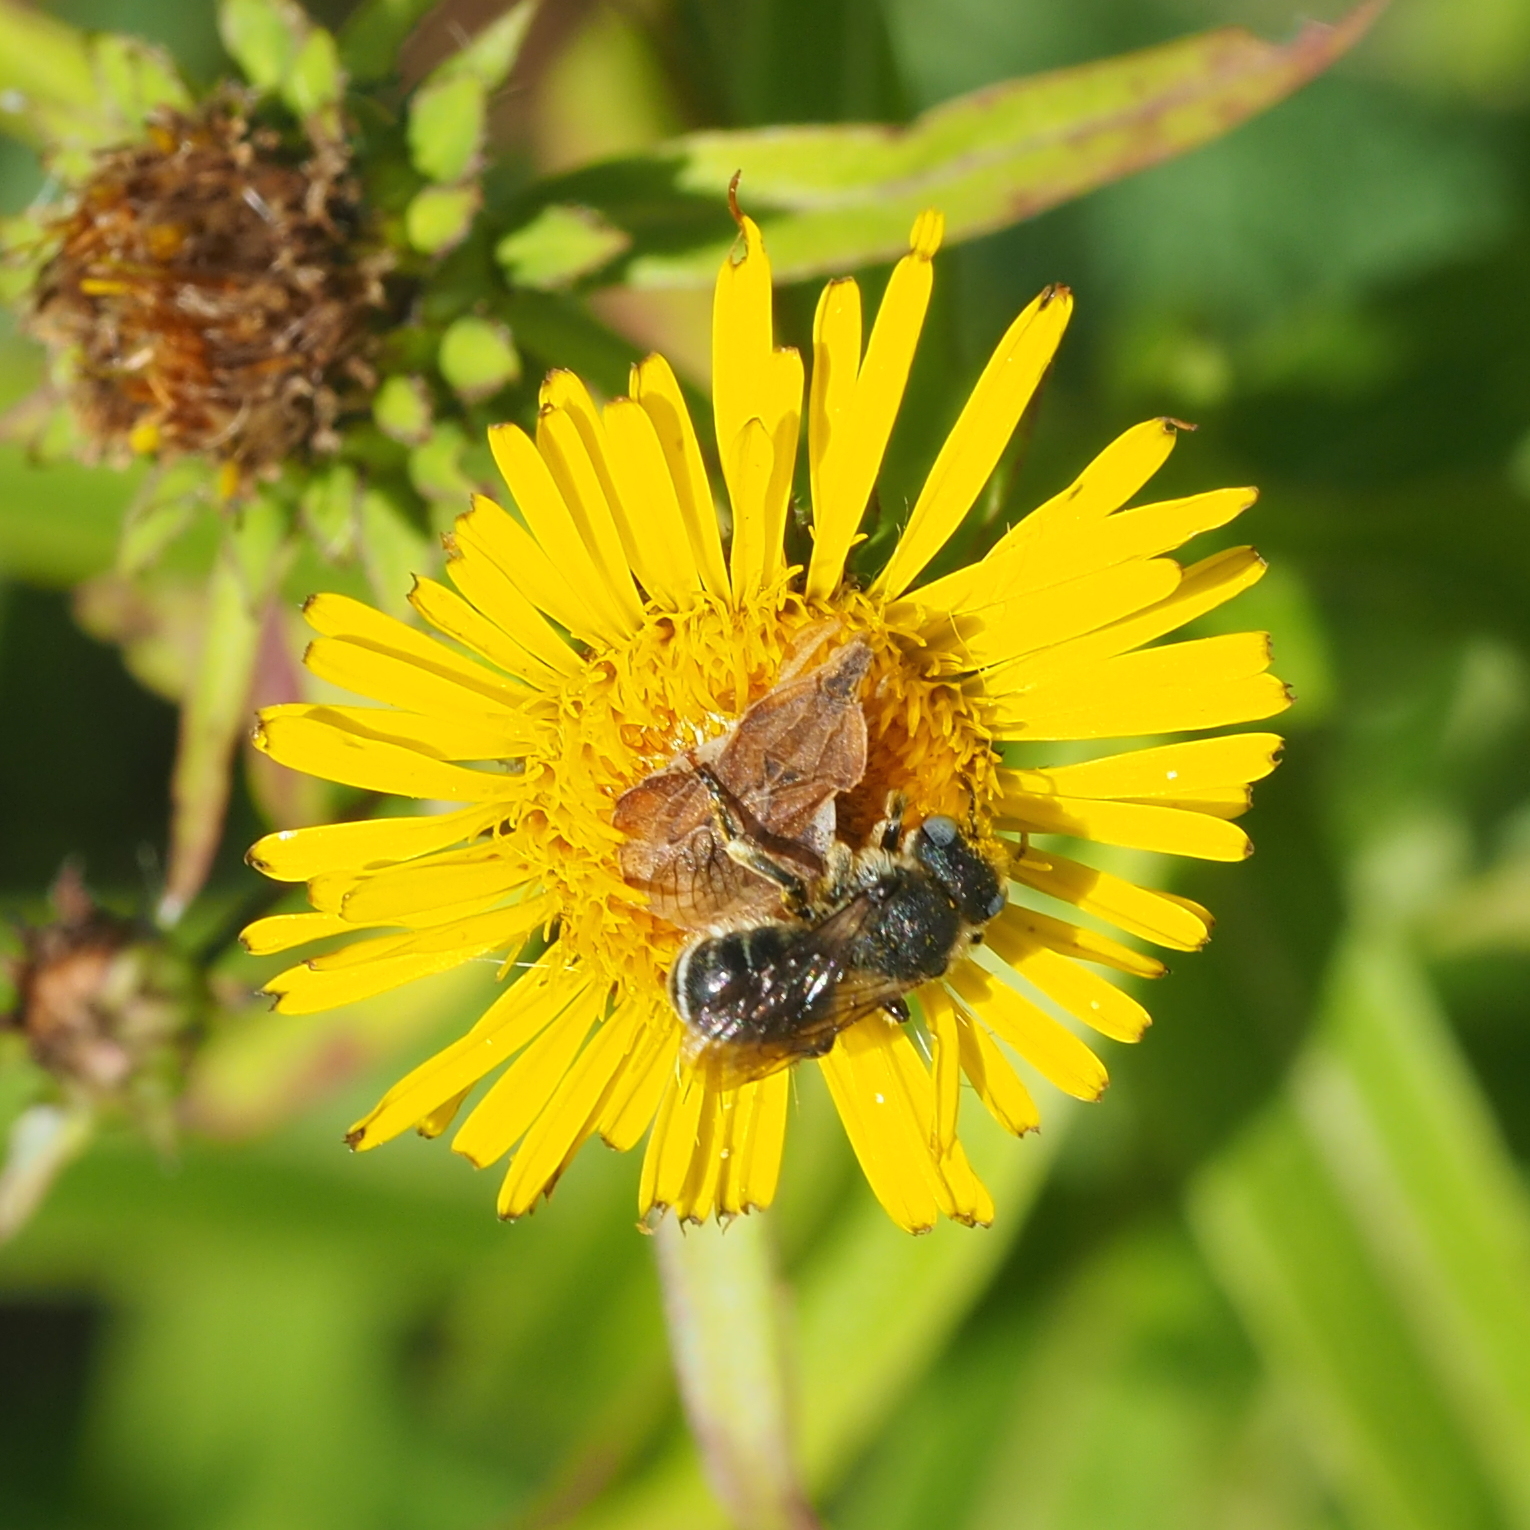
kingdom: Animalia
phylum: Arthropoda
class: Insecta
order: Hemiptera
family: Reduviidae
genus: Phymata
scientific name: Phymata crassipes
